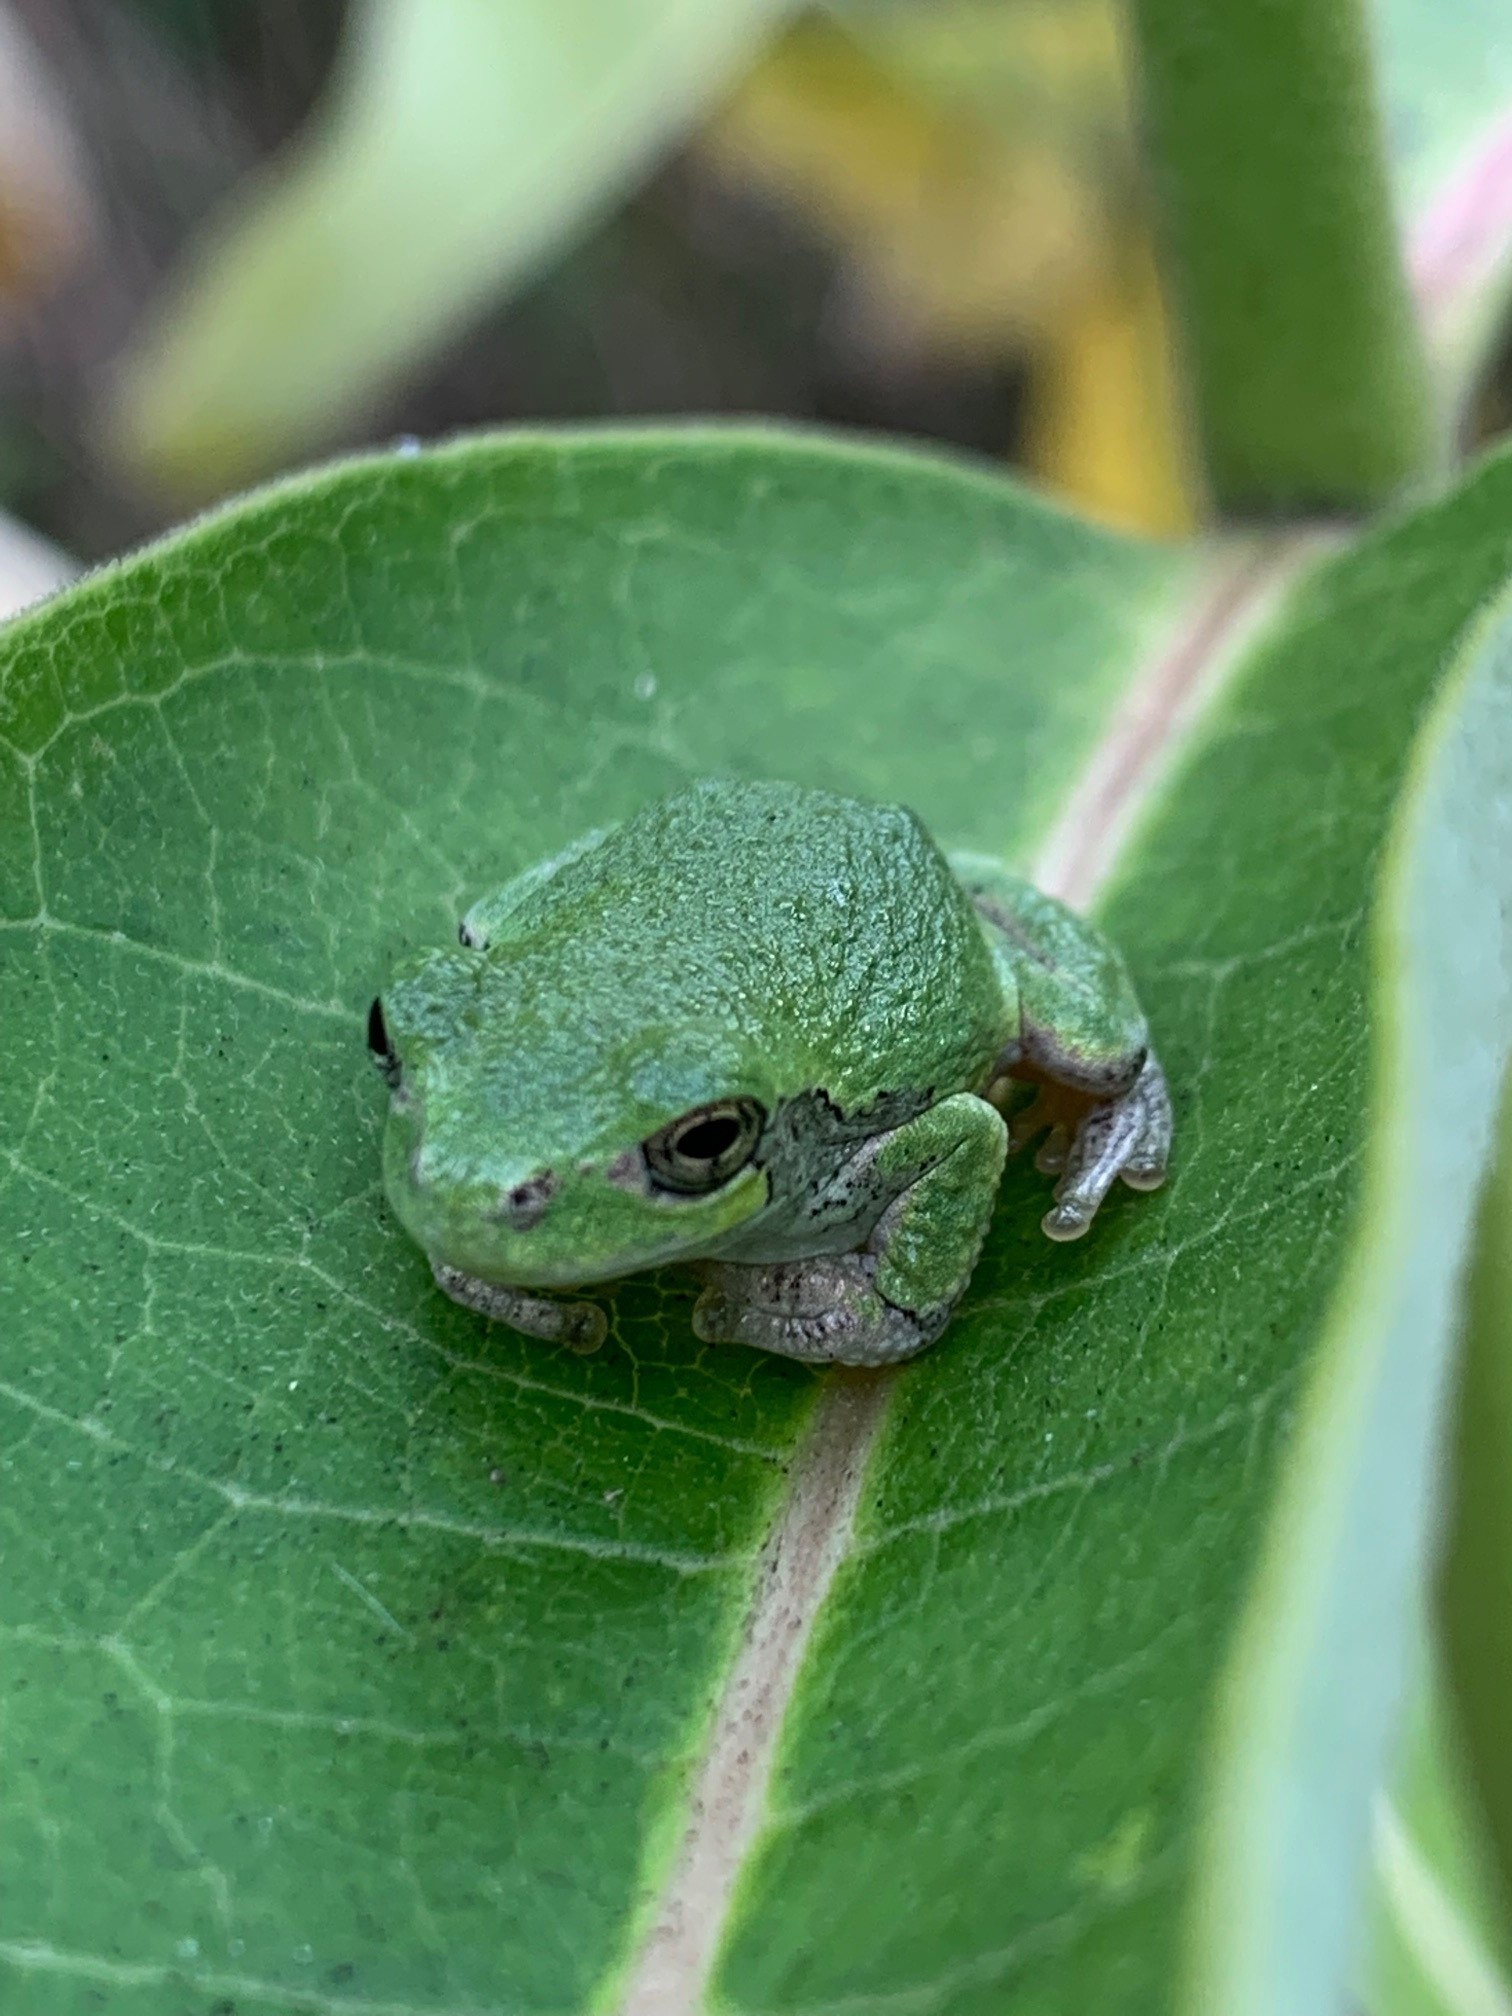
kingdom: Animalia
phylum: Chordata
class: Amphibia
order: Anura
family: Hylidae
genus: Dryophytes
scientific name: Dryophytes versicolor
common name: Gray treefrog
